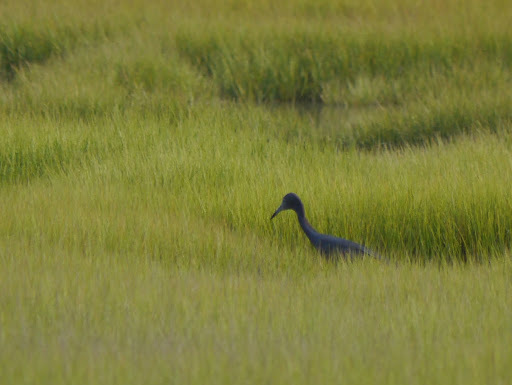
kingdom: Animalia
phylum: Chordata
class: Aves
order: Pelecaniformes
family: Ardeidae
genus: Egretta
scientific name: Egretta caerulea
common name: Little blue heron
